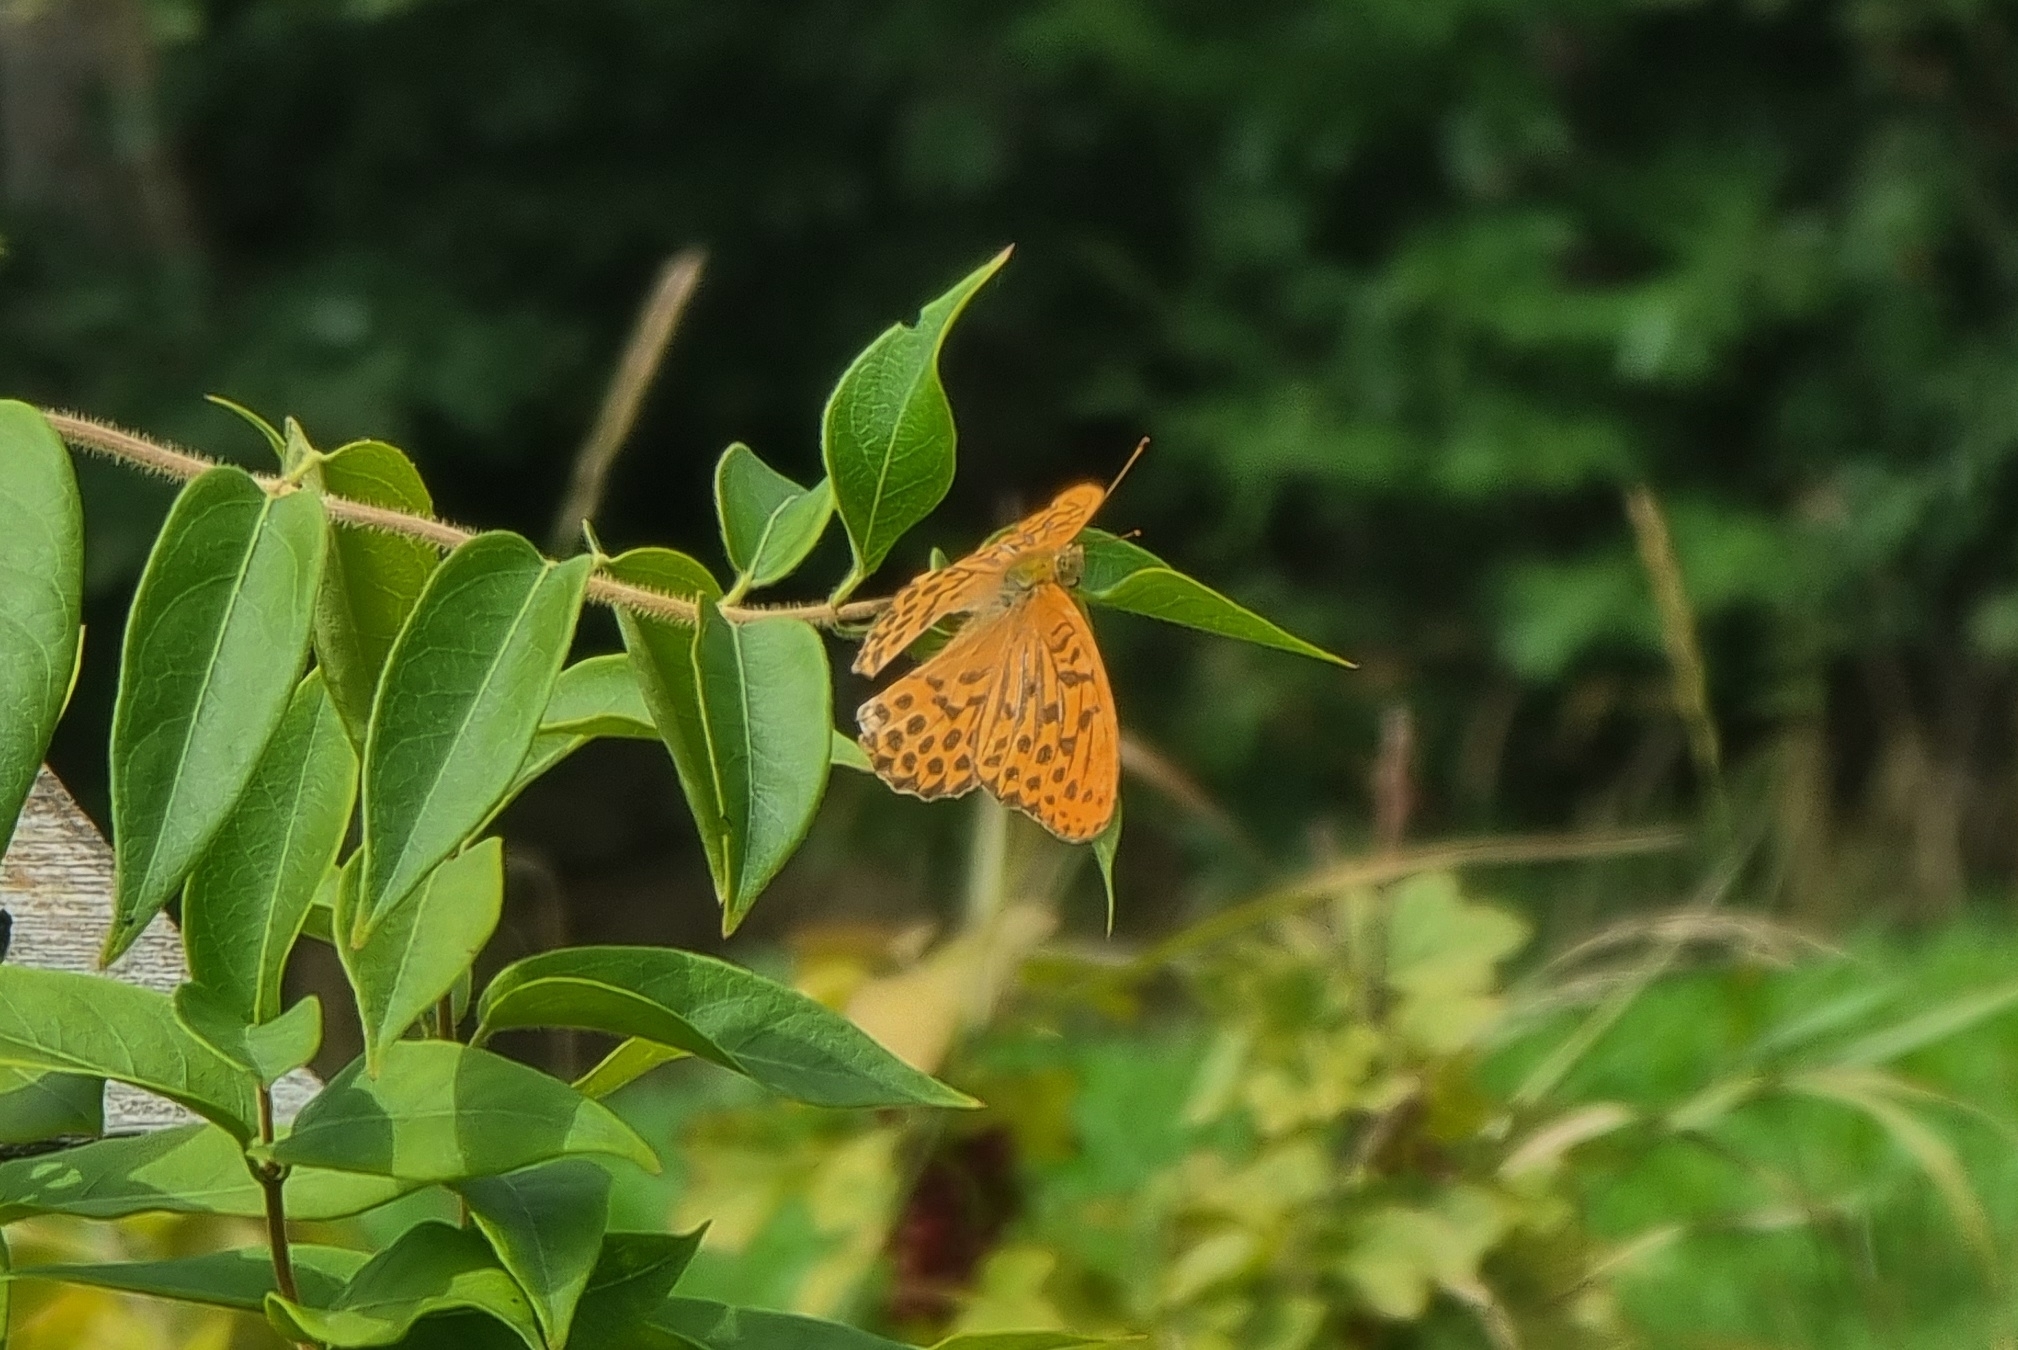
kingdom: Animalia
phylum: Arthropoda
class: Insecta
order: Lepidoptera
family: Nymphalidae
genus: Argynnis
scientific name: Argynnis paphia
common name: Silver-washed fritillary
